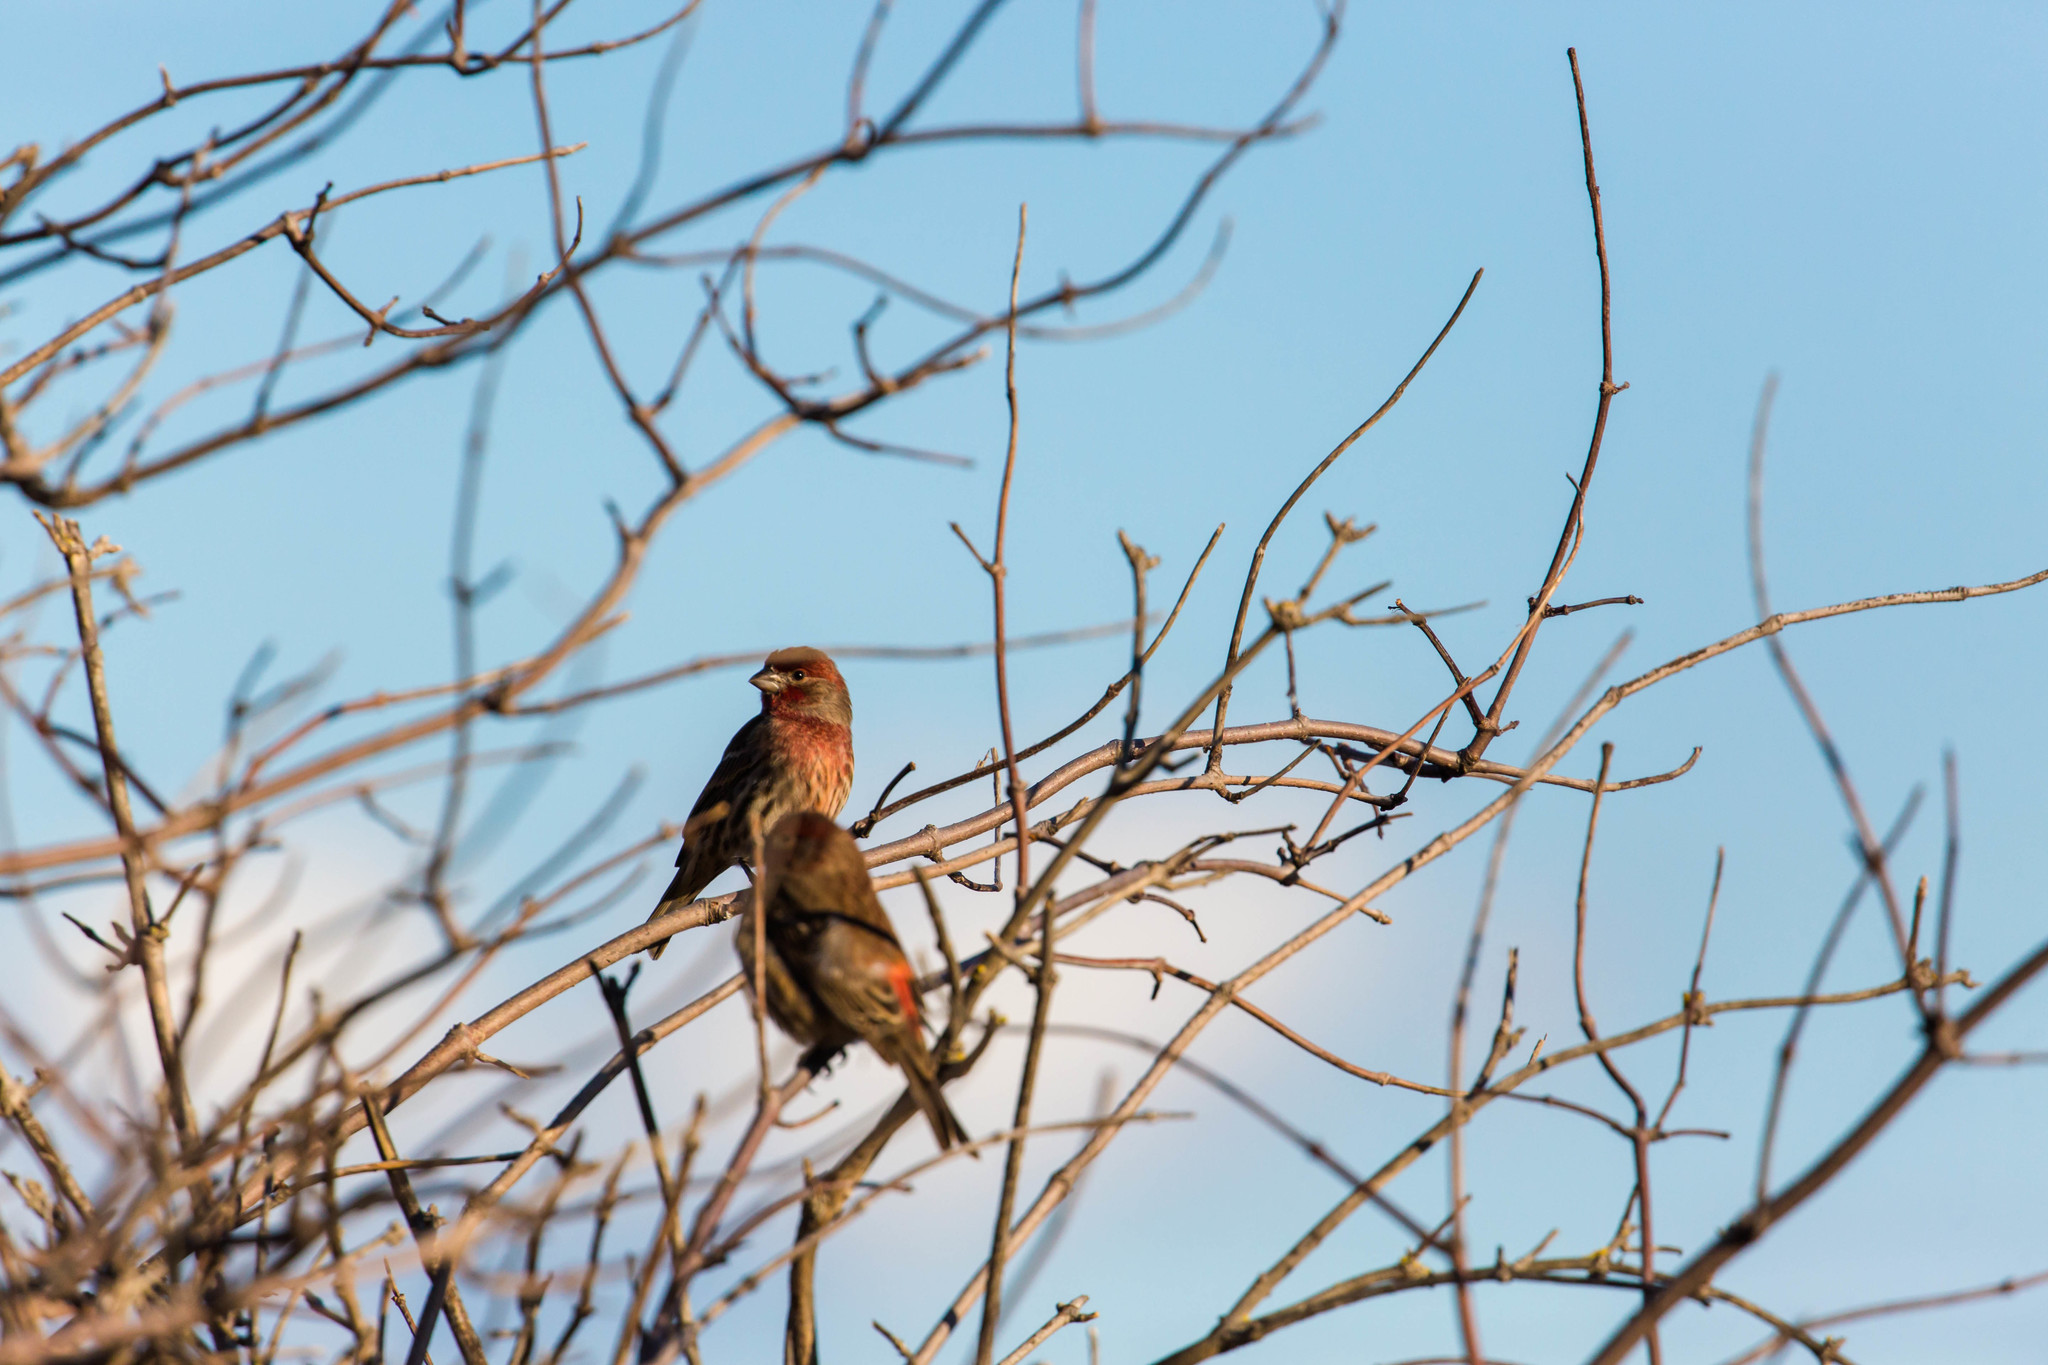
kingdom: Animalia
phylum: Chordata
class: Aves
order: Passeriformes
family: Fringillidae
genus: Haemorhous
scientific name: Haemorhous mexicanus
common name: House finch
